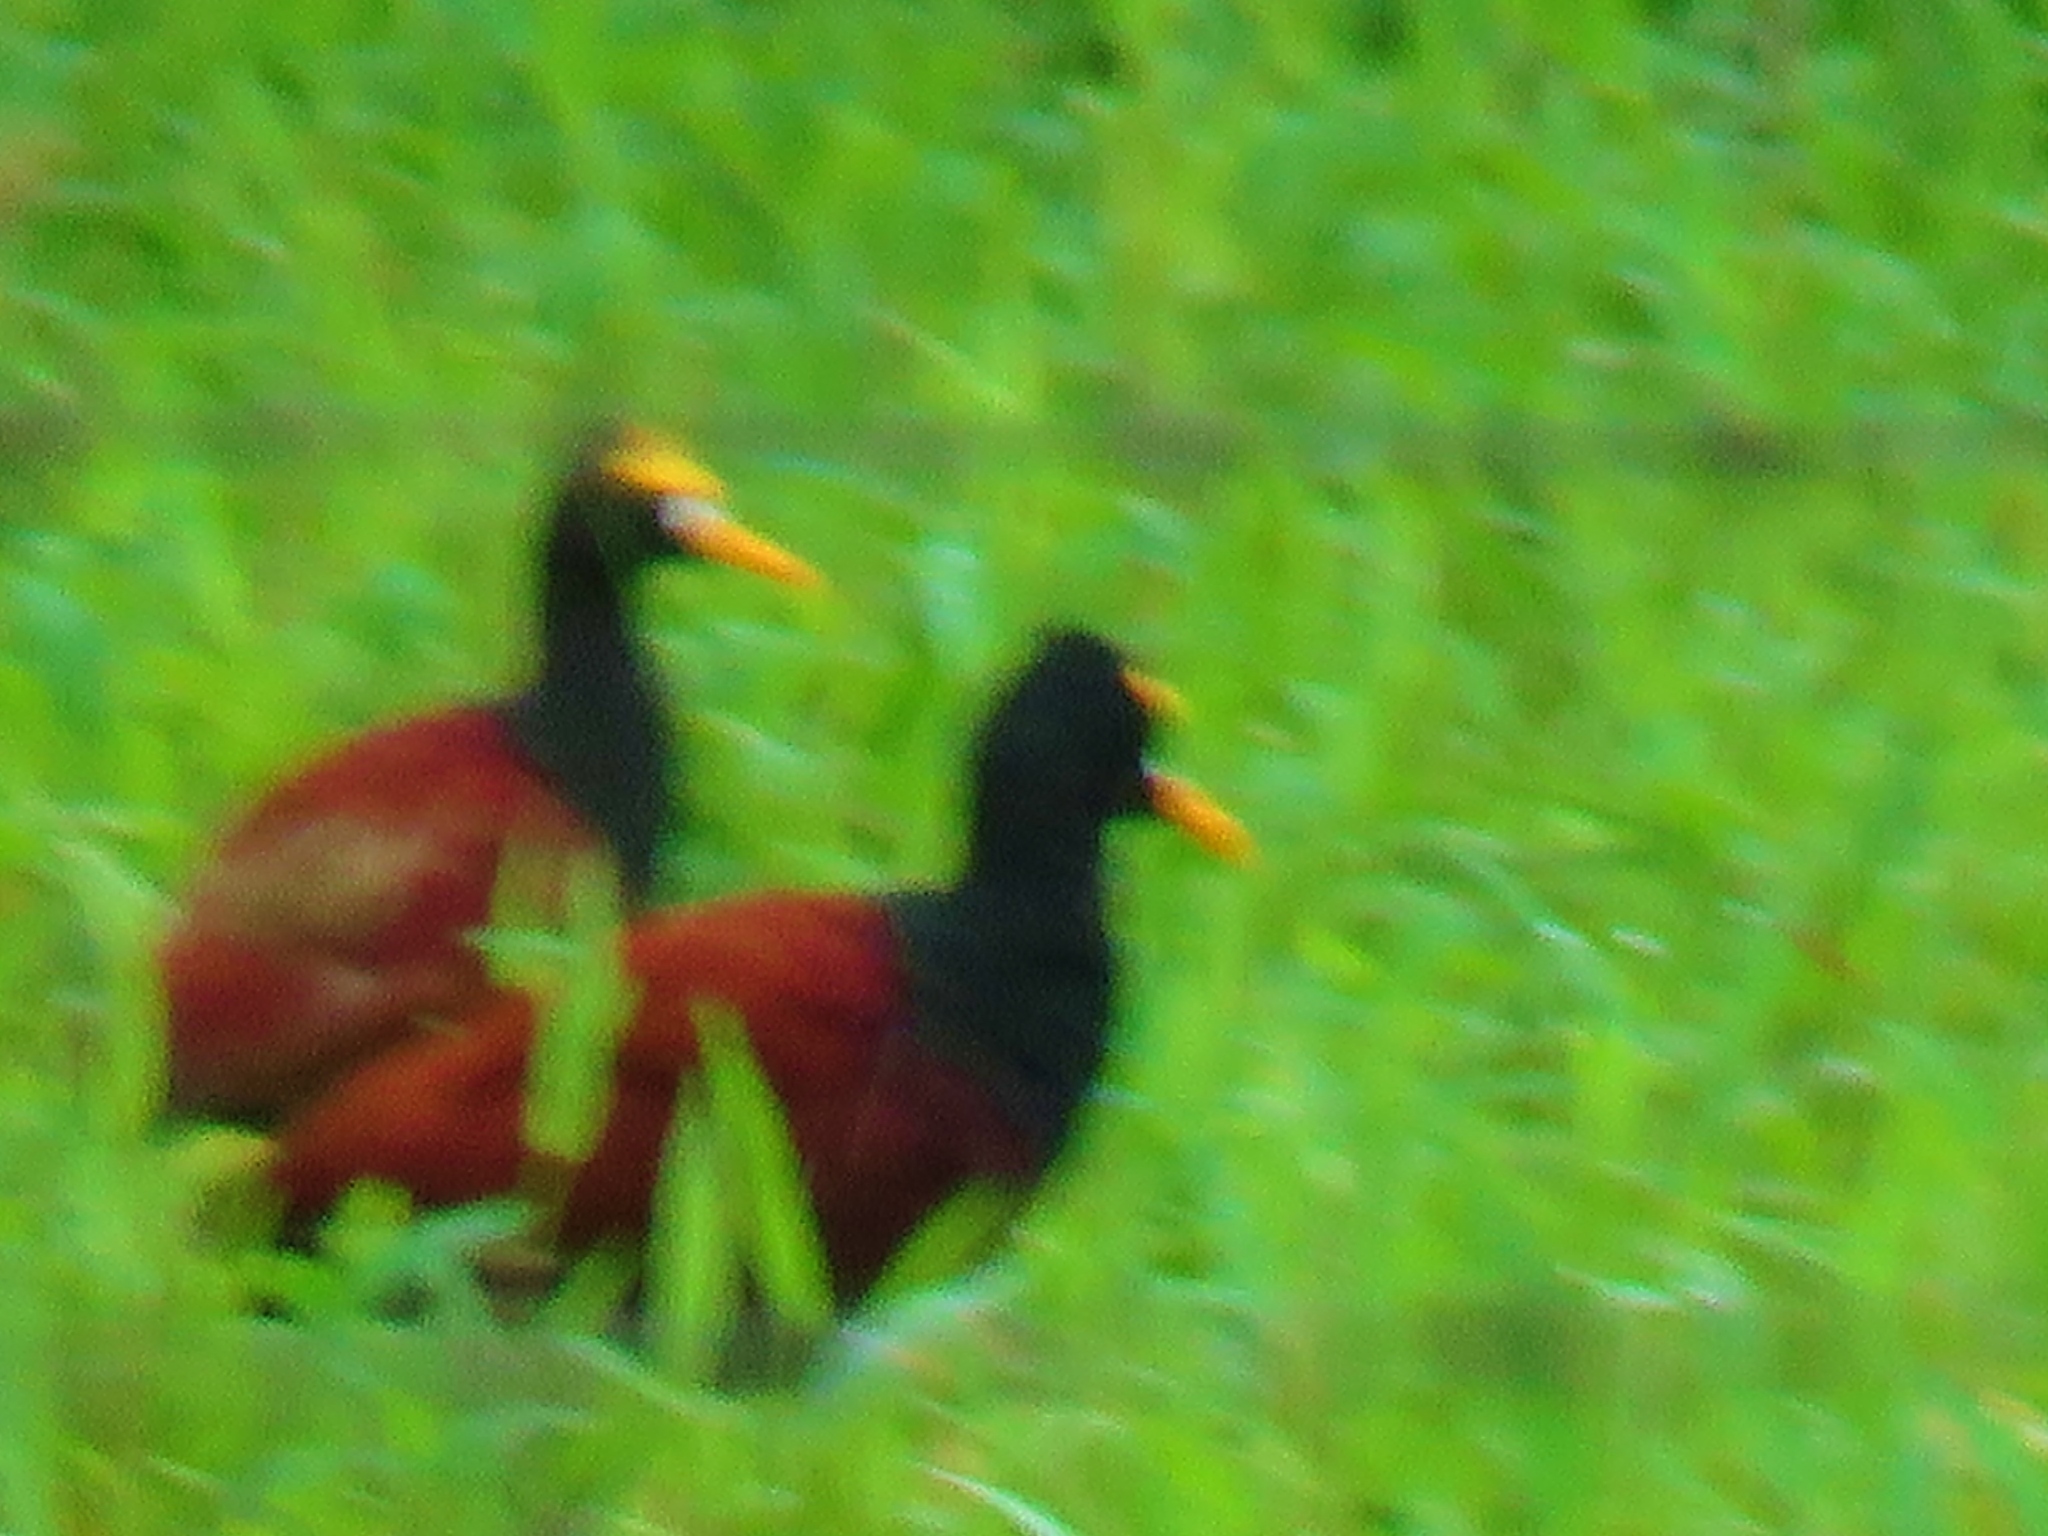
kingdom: Animalia
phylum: Chordata
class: Aves
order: Charadriiformes
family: Jacanidae
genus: Jacana
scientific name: Jacana spinosa
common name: Northern jacana
